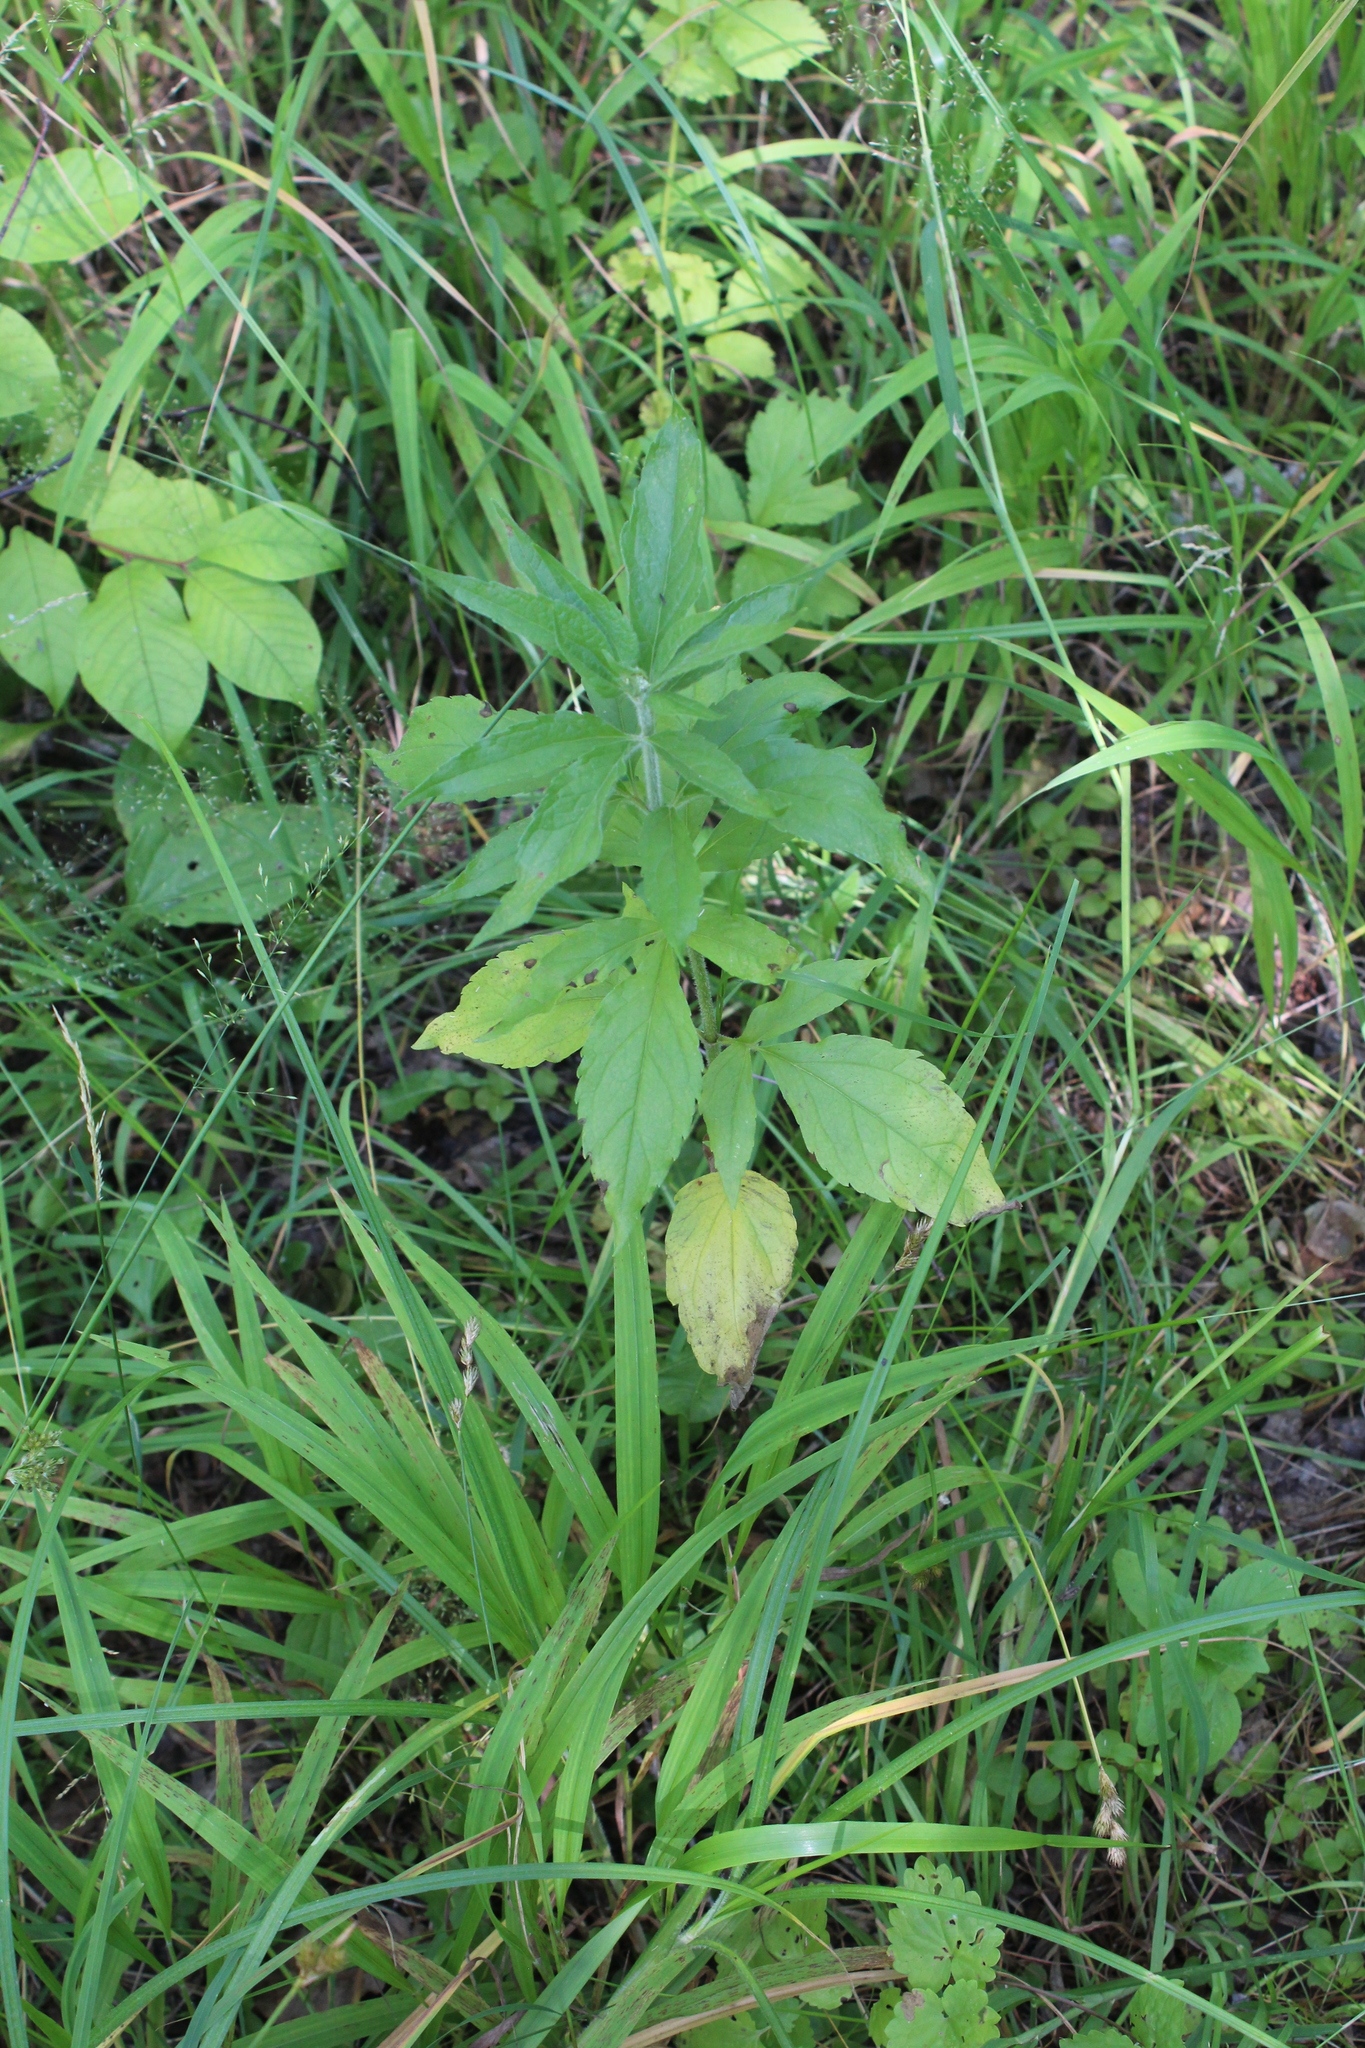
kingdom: Plantae
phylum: Tracheophyta
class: Magnoliopsida
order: Asterales
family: Asteraceae
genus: Eupatorium
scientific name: Eupatorium cannabinum
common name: Hemp-agrimony
